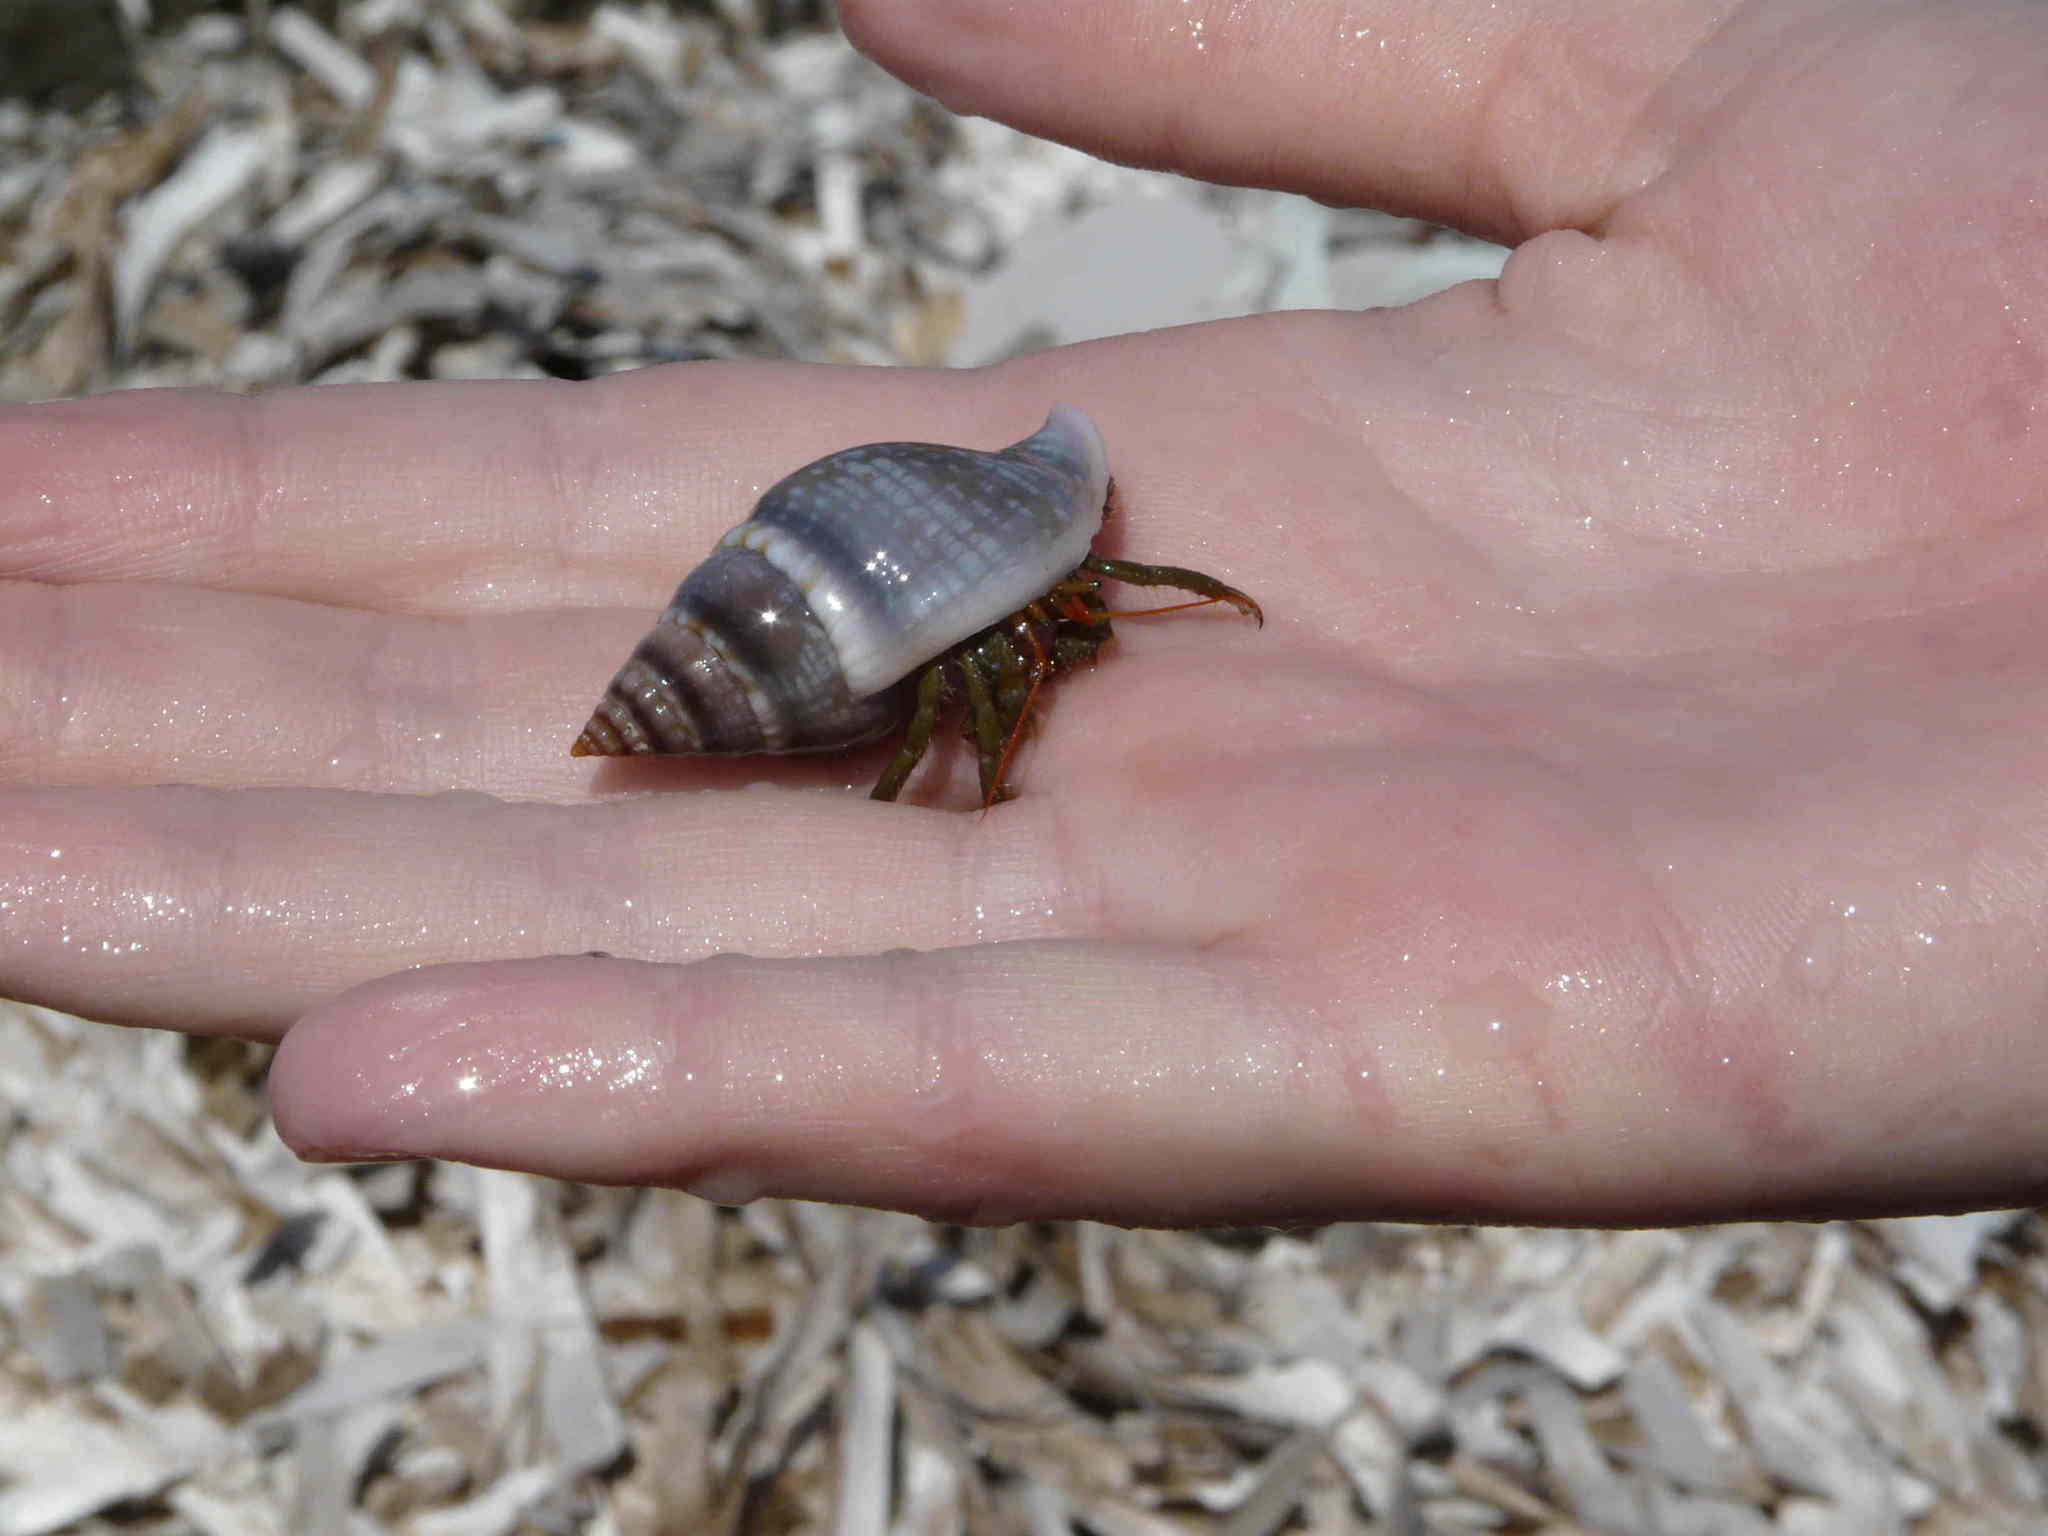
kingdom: Animalia
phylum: Arthropoda
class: Malacostraca
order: Decapoda
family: Diogenidae
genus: Clibanarius
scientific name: Clibanarius erythropus
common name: Hermit crab
